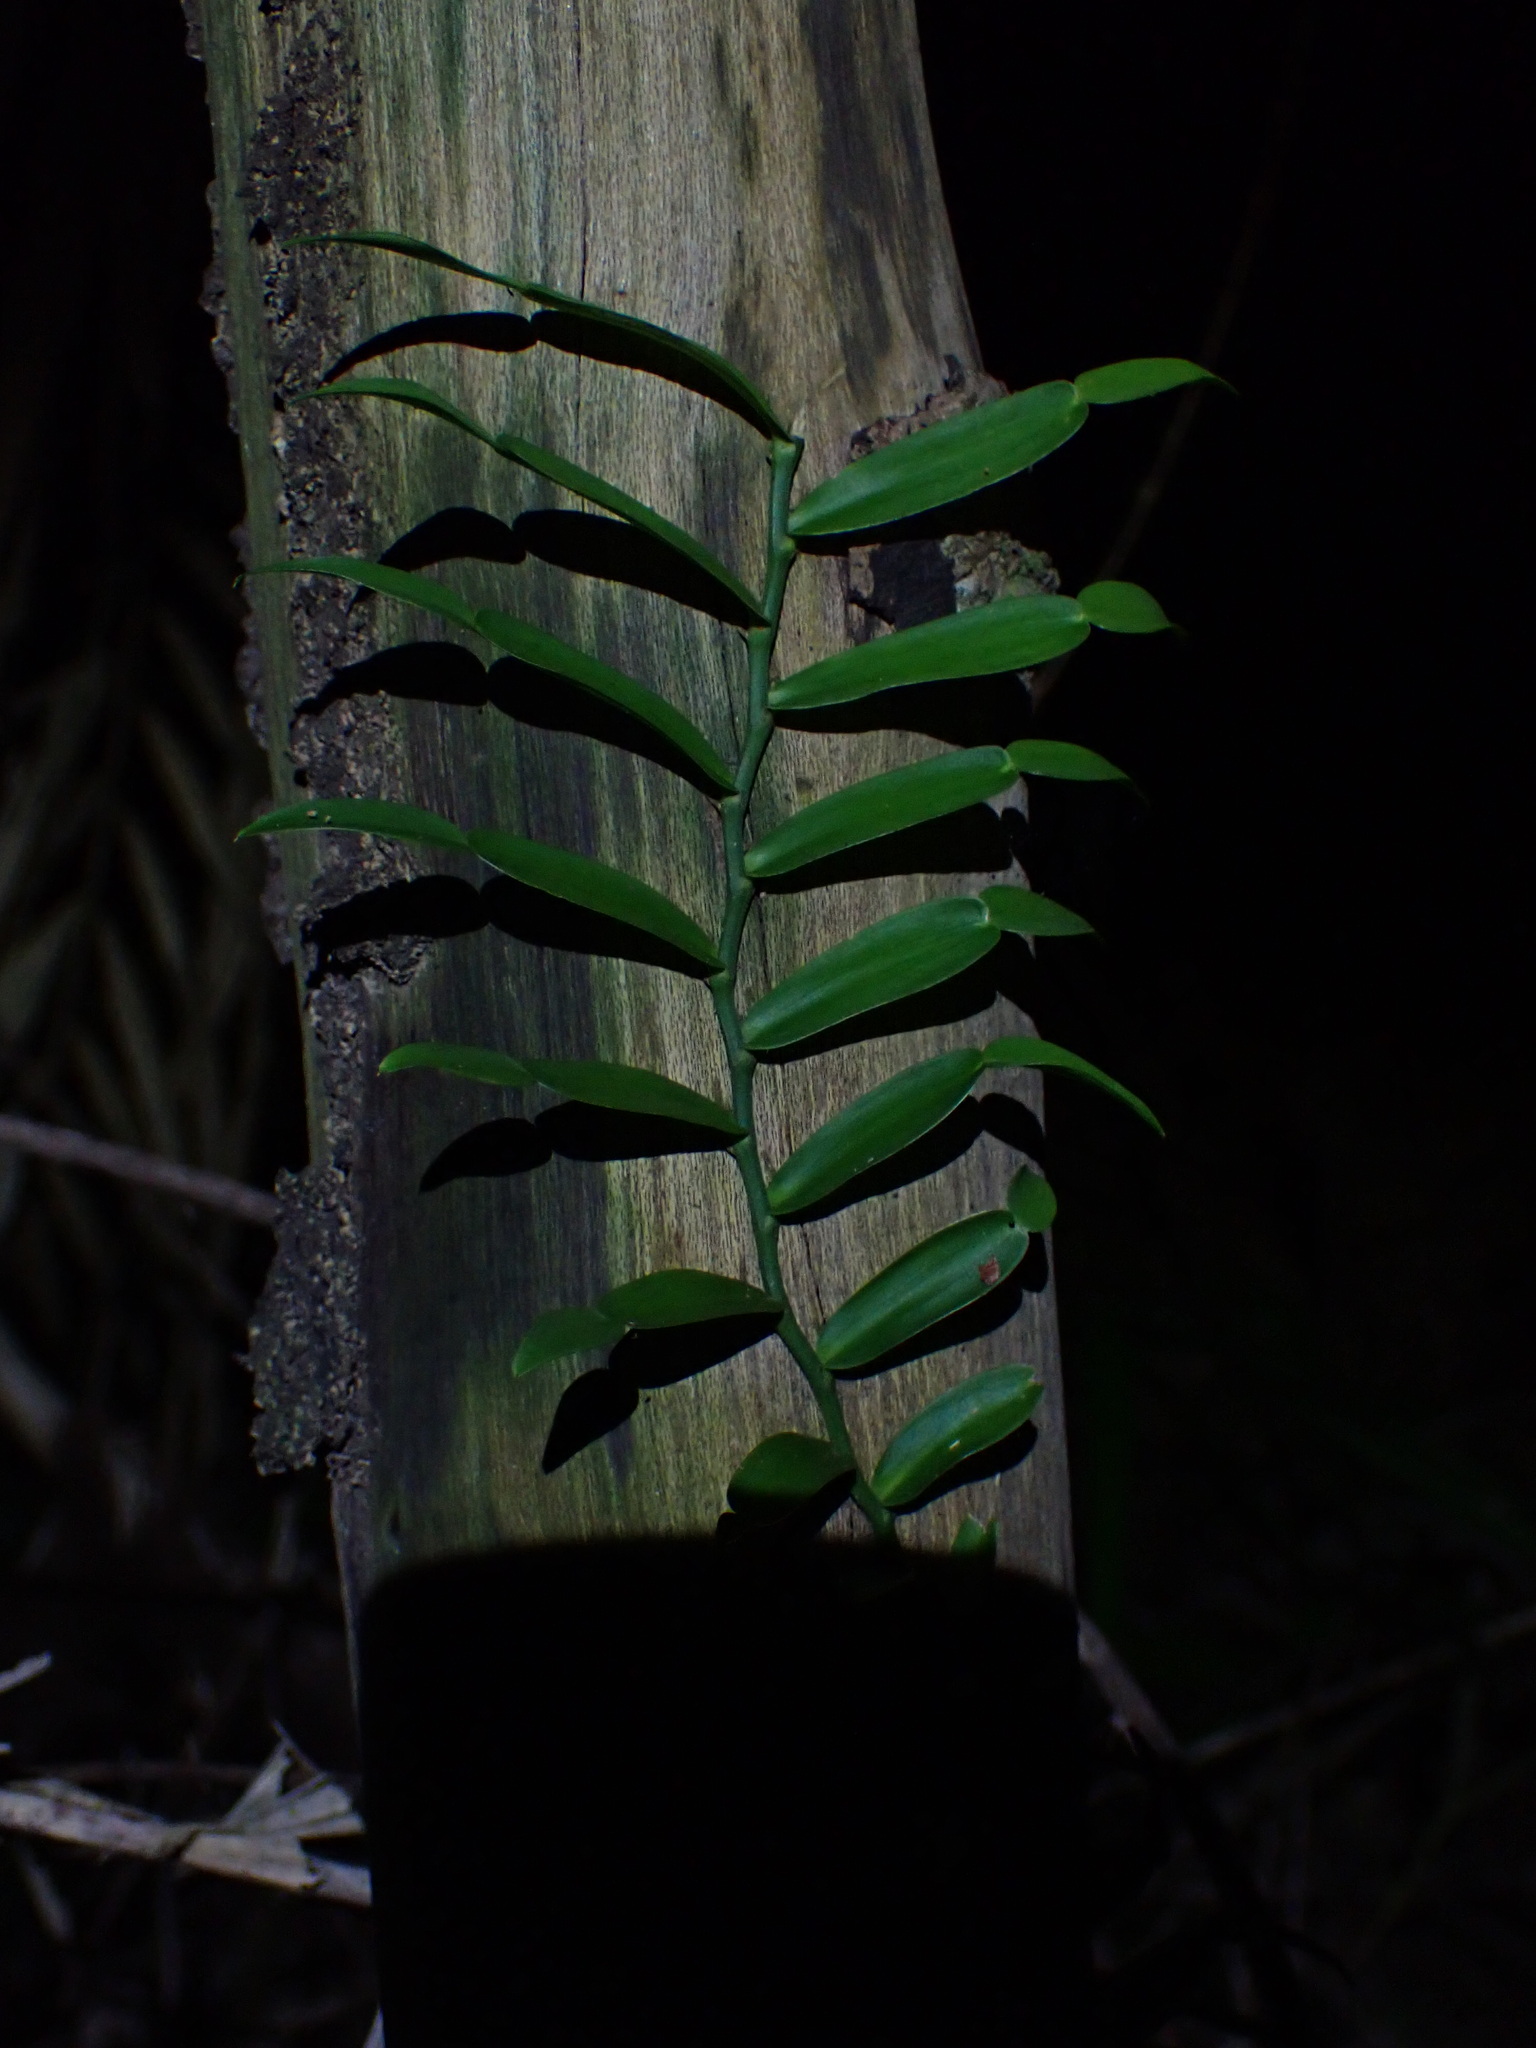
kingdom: Plantae
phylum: Tracheophyta
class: Liliopsida
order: Alismatales
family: Araceae
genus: Pothos
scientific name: Pothos longipes
